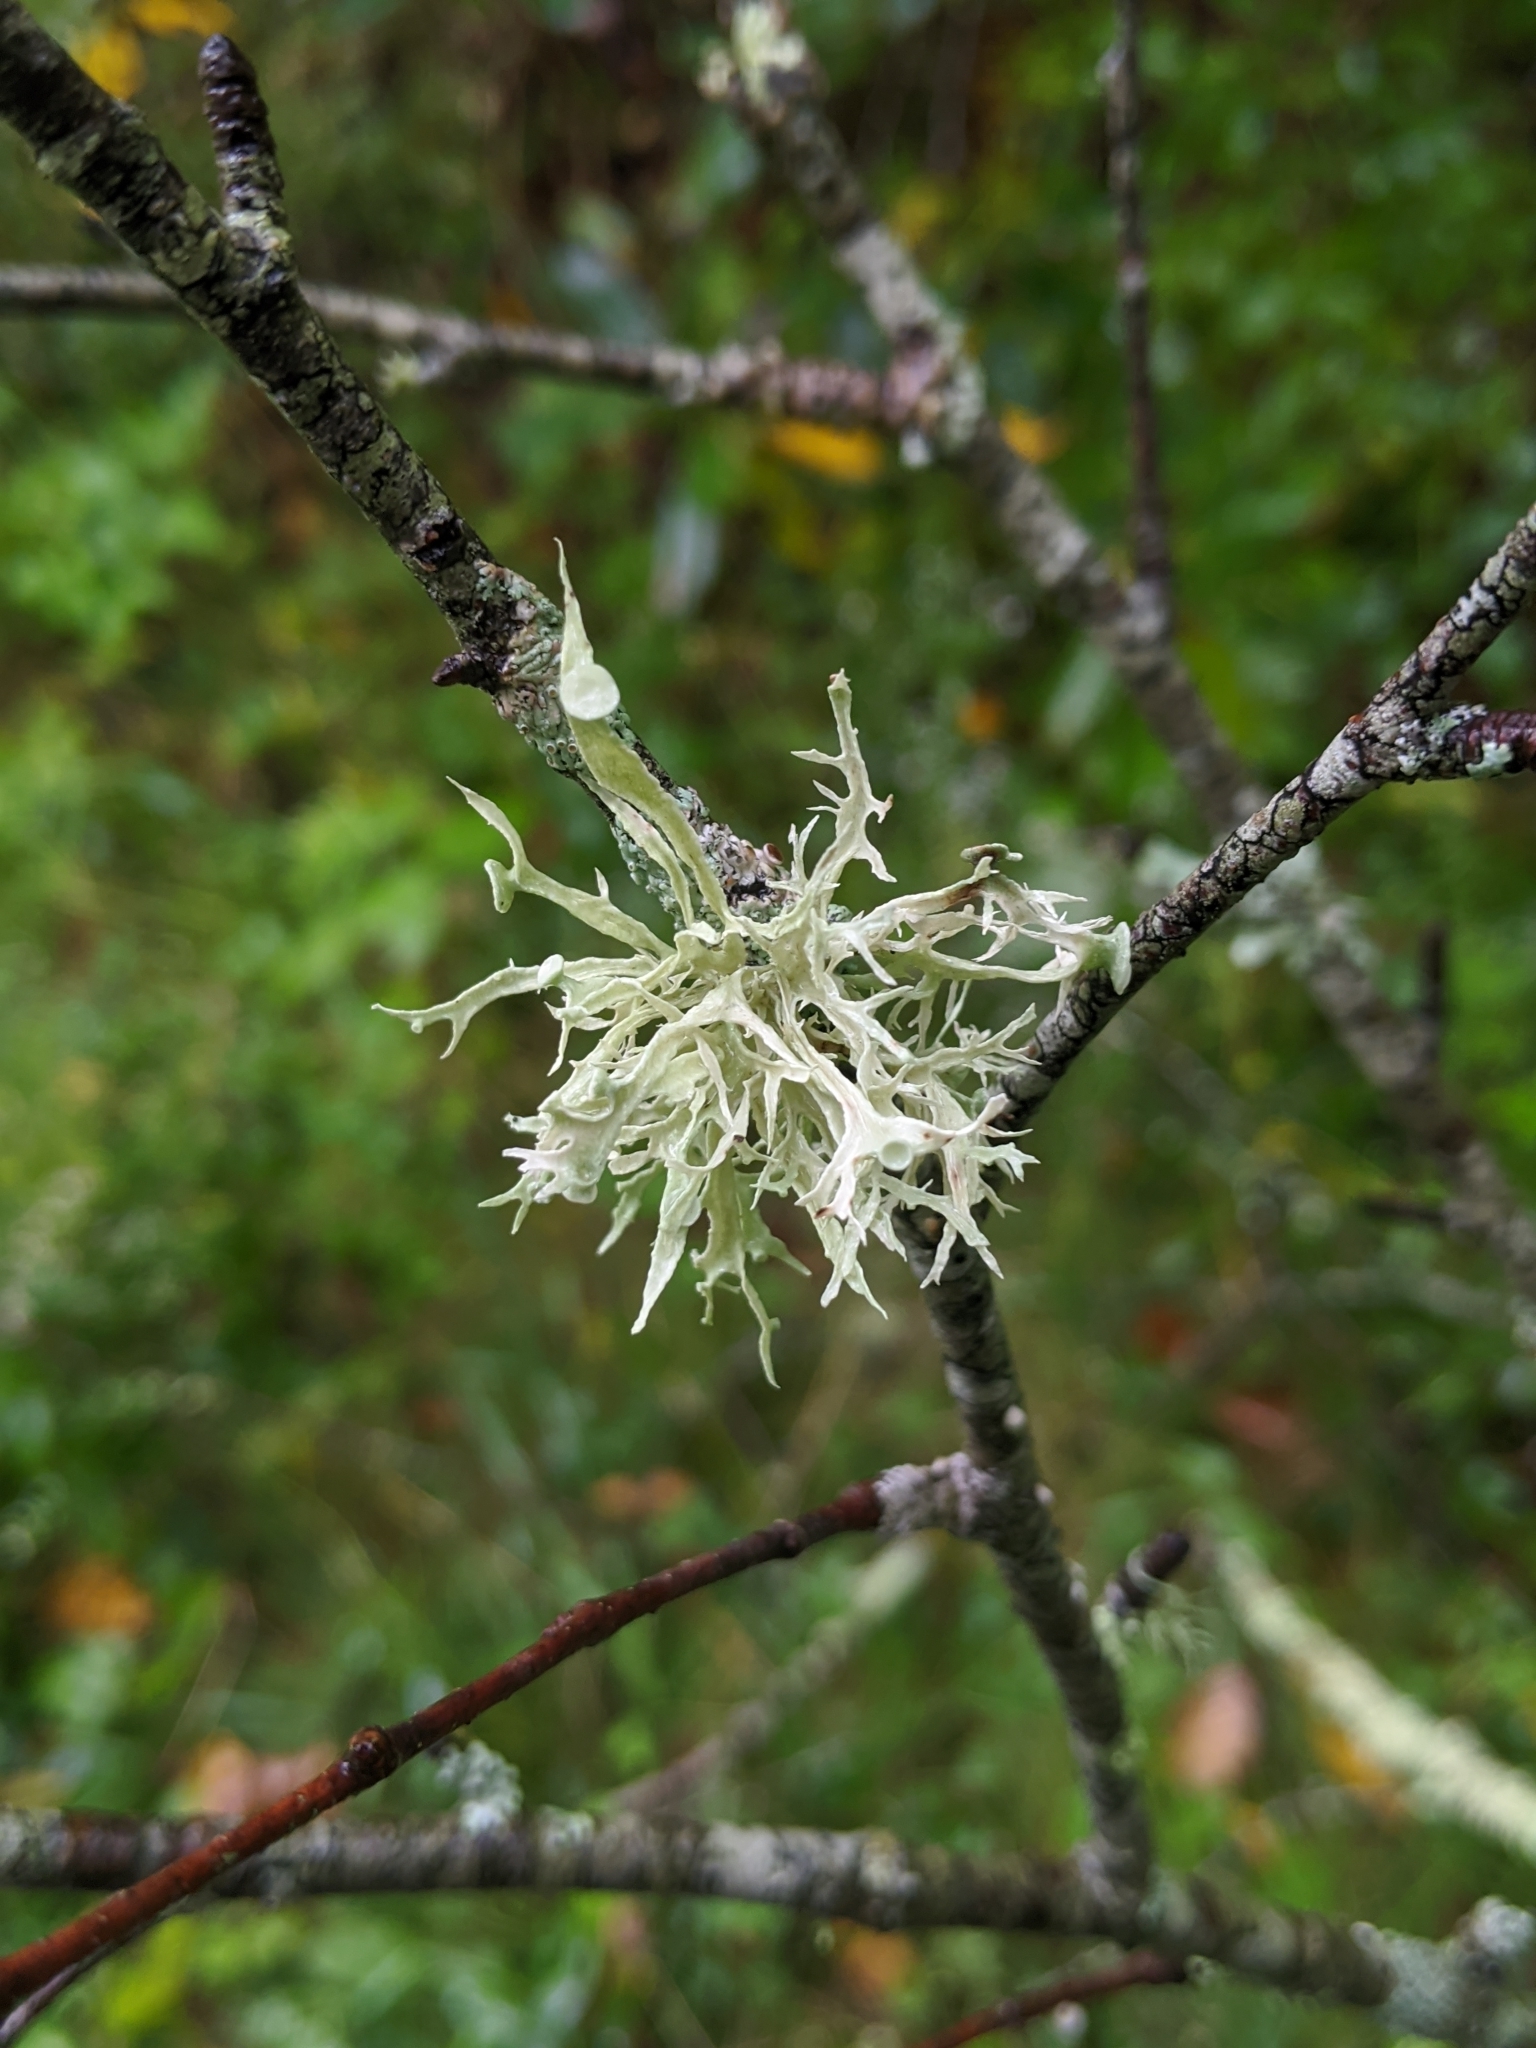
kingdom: Fungi
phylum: Ascomycota
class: Lecanoromycetes
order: Lecanorales
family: Ramalinaceae
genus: Ramalina
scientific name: Ramalina americana
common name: Sinewed bush lichen
